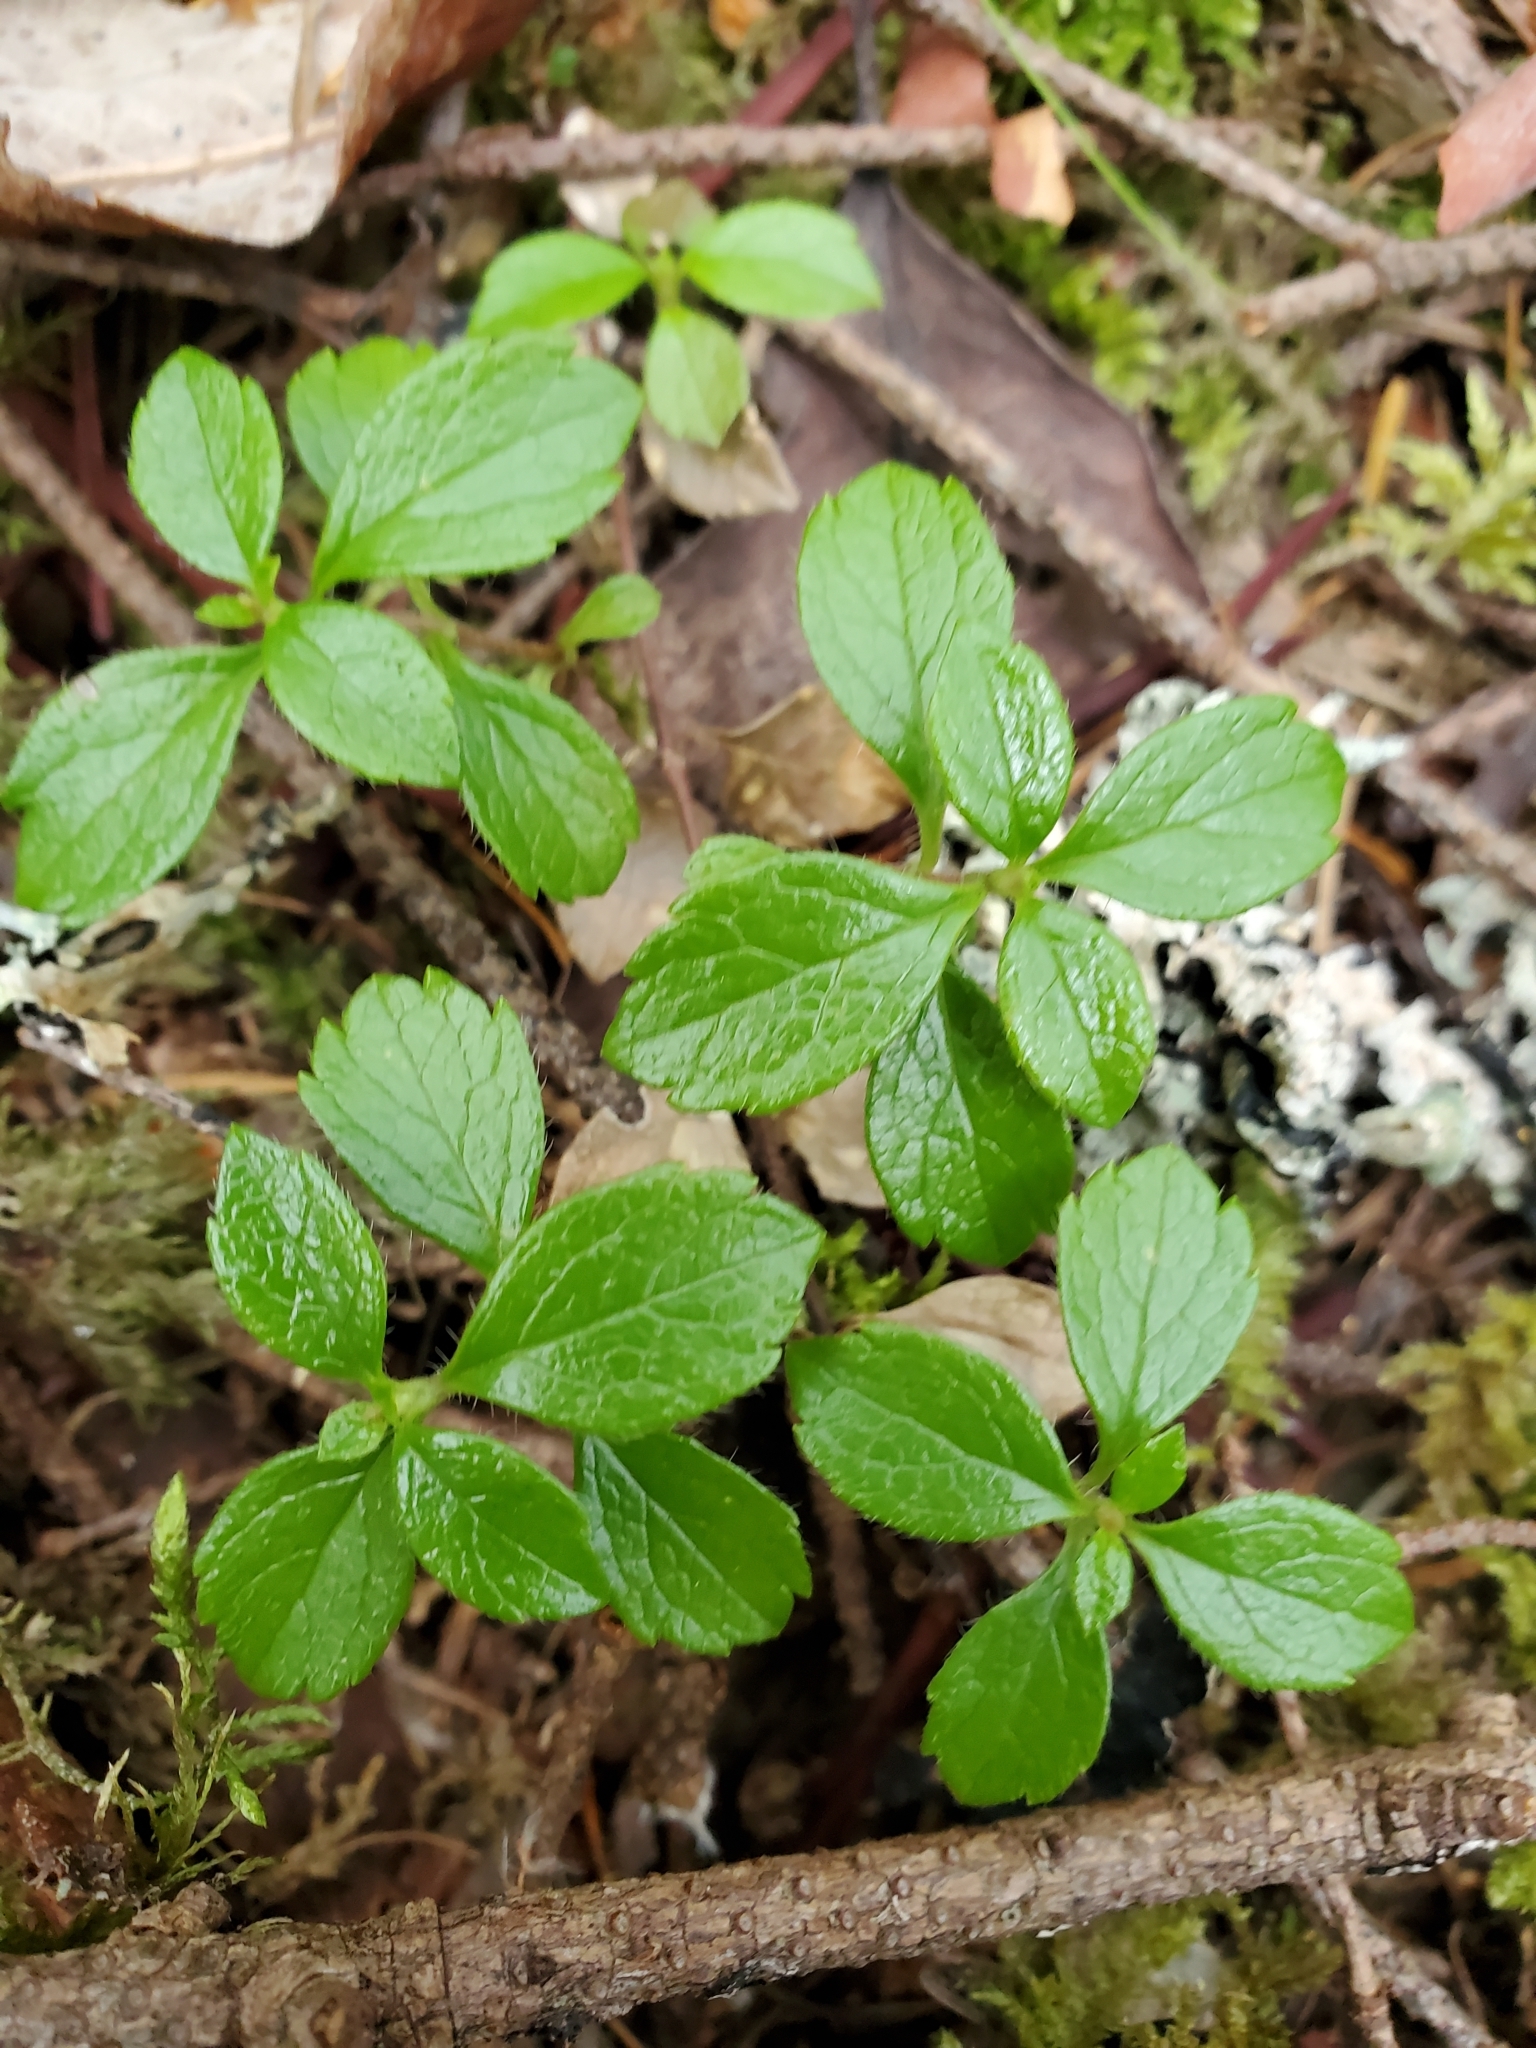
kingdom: Plantae
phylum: Tracheophyta
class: Magnoliopsida
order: Dipsacales
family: Caprifoliaceae
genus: Linnaea
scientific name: Linnaea borealis
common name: Twinflower
